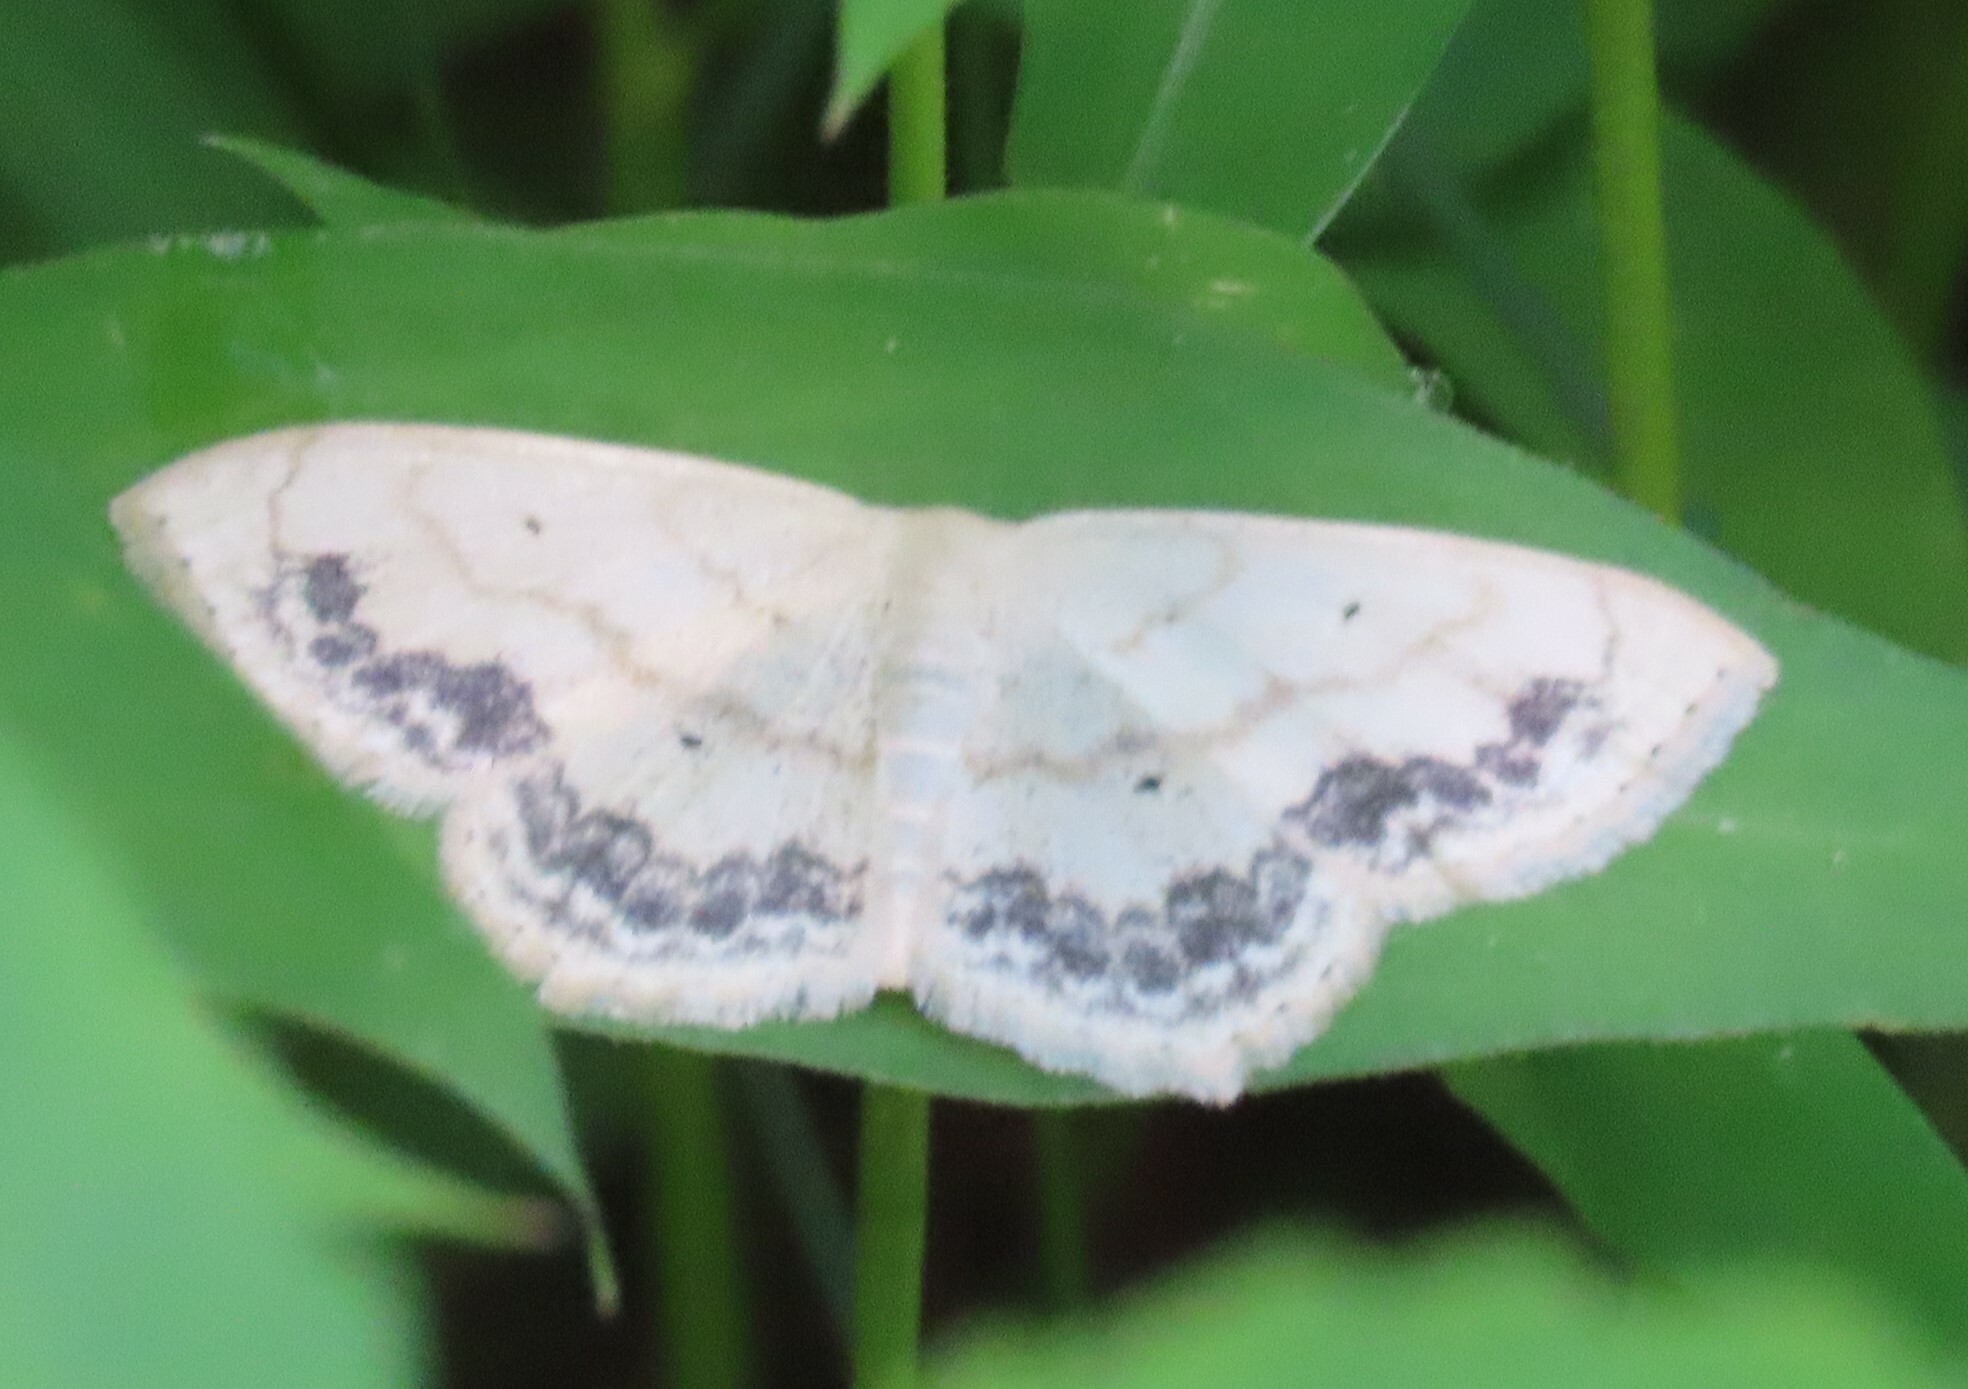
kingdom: Animalia
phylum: Arthropoda
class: Insecta
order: Lepidoptera
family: Geometridae
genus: Scopula
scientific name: Scopula limboundata
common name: Large lace border
